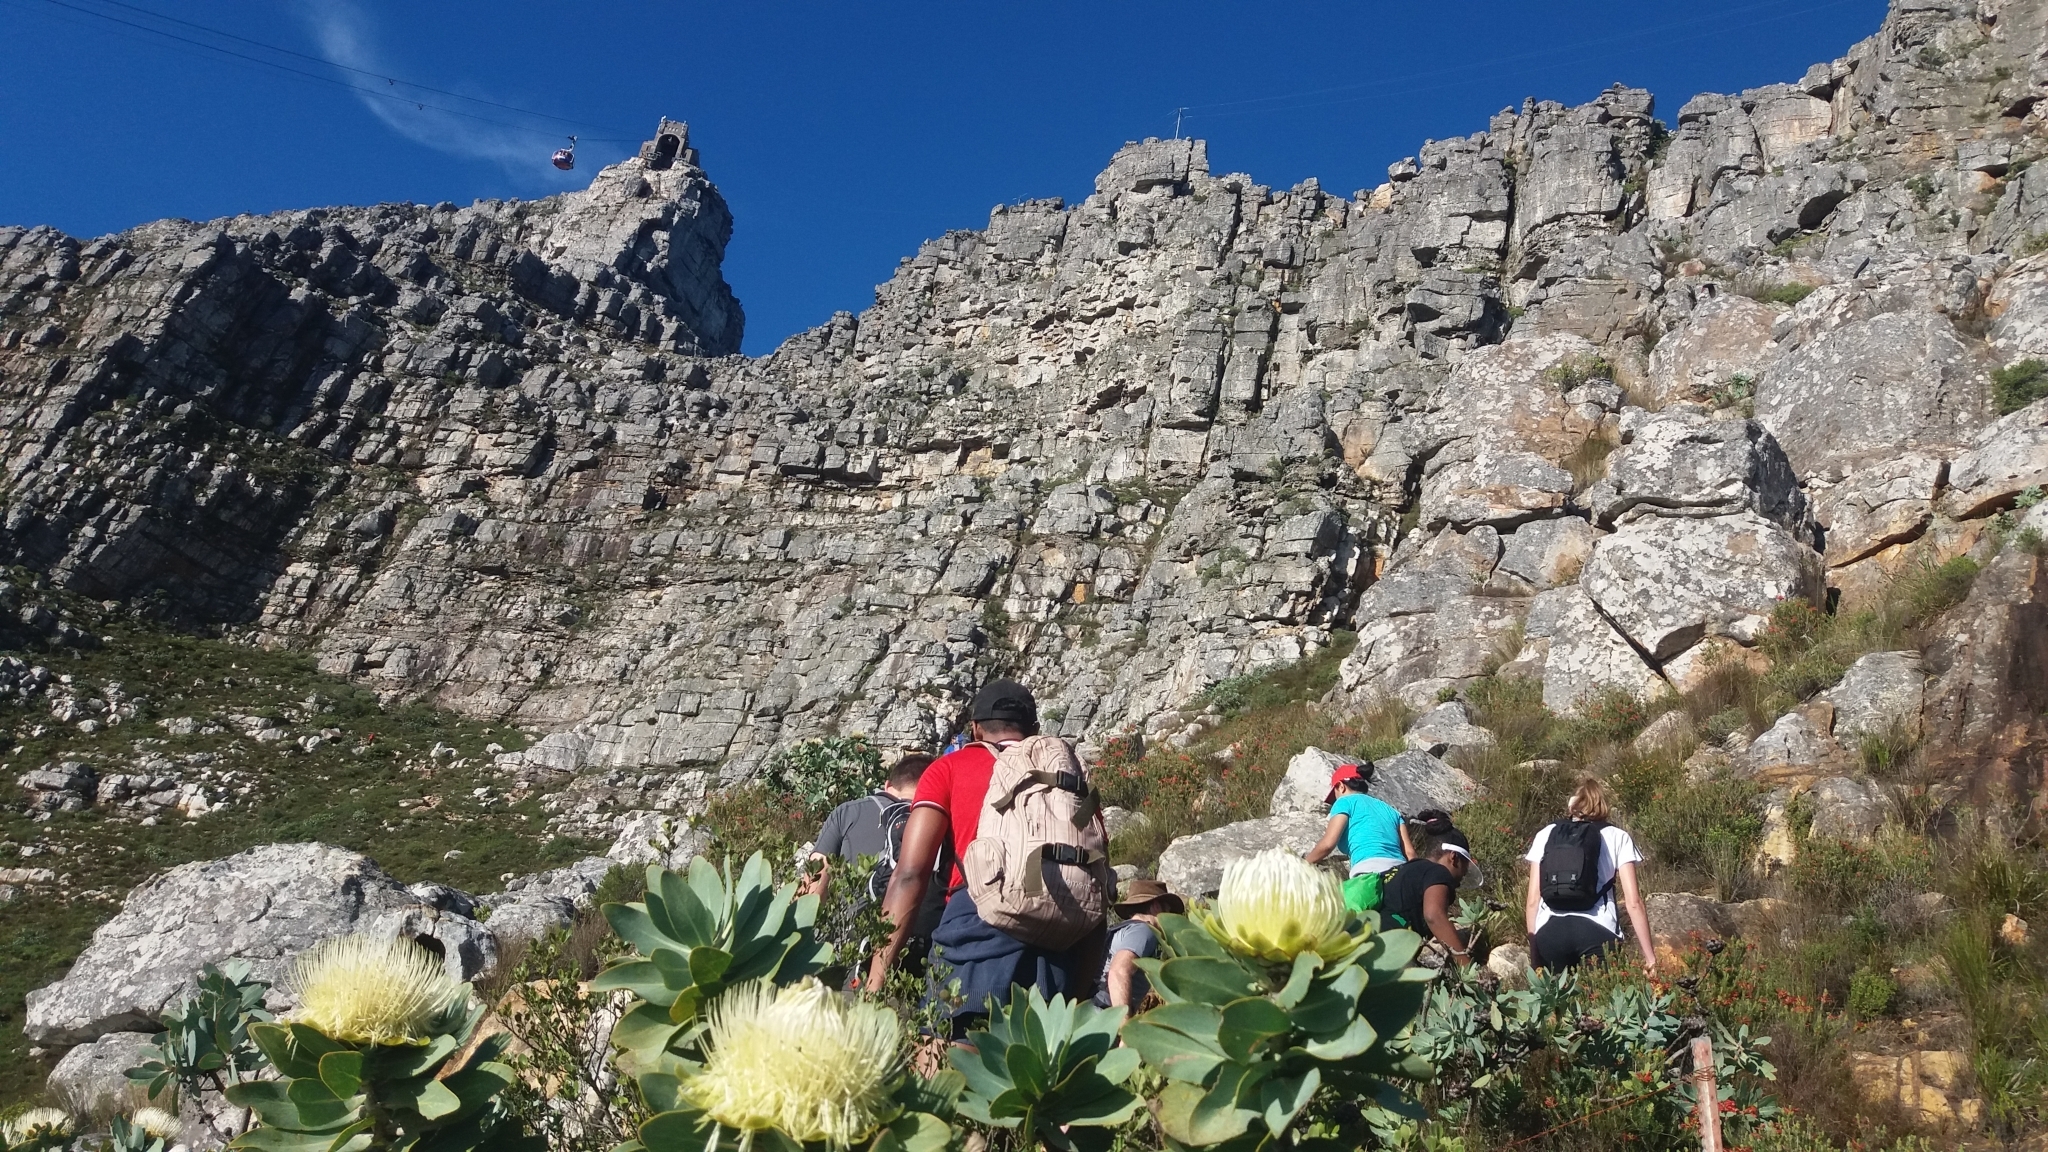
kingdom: Plantae
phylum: Tracheophyta
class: Magnoliopsida
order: Proteales
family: Proteaceae
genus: Protea
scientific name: Protea nitida
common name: Tree protea
